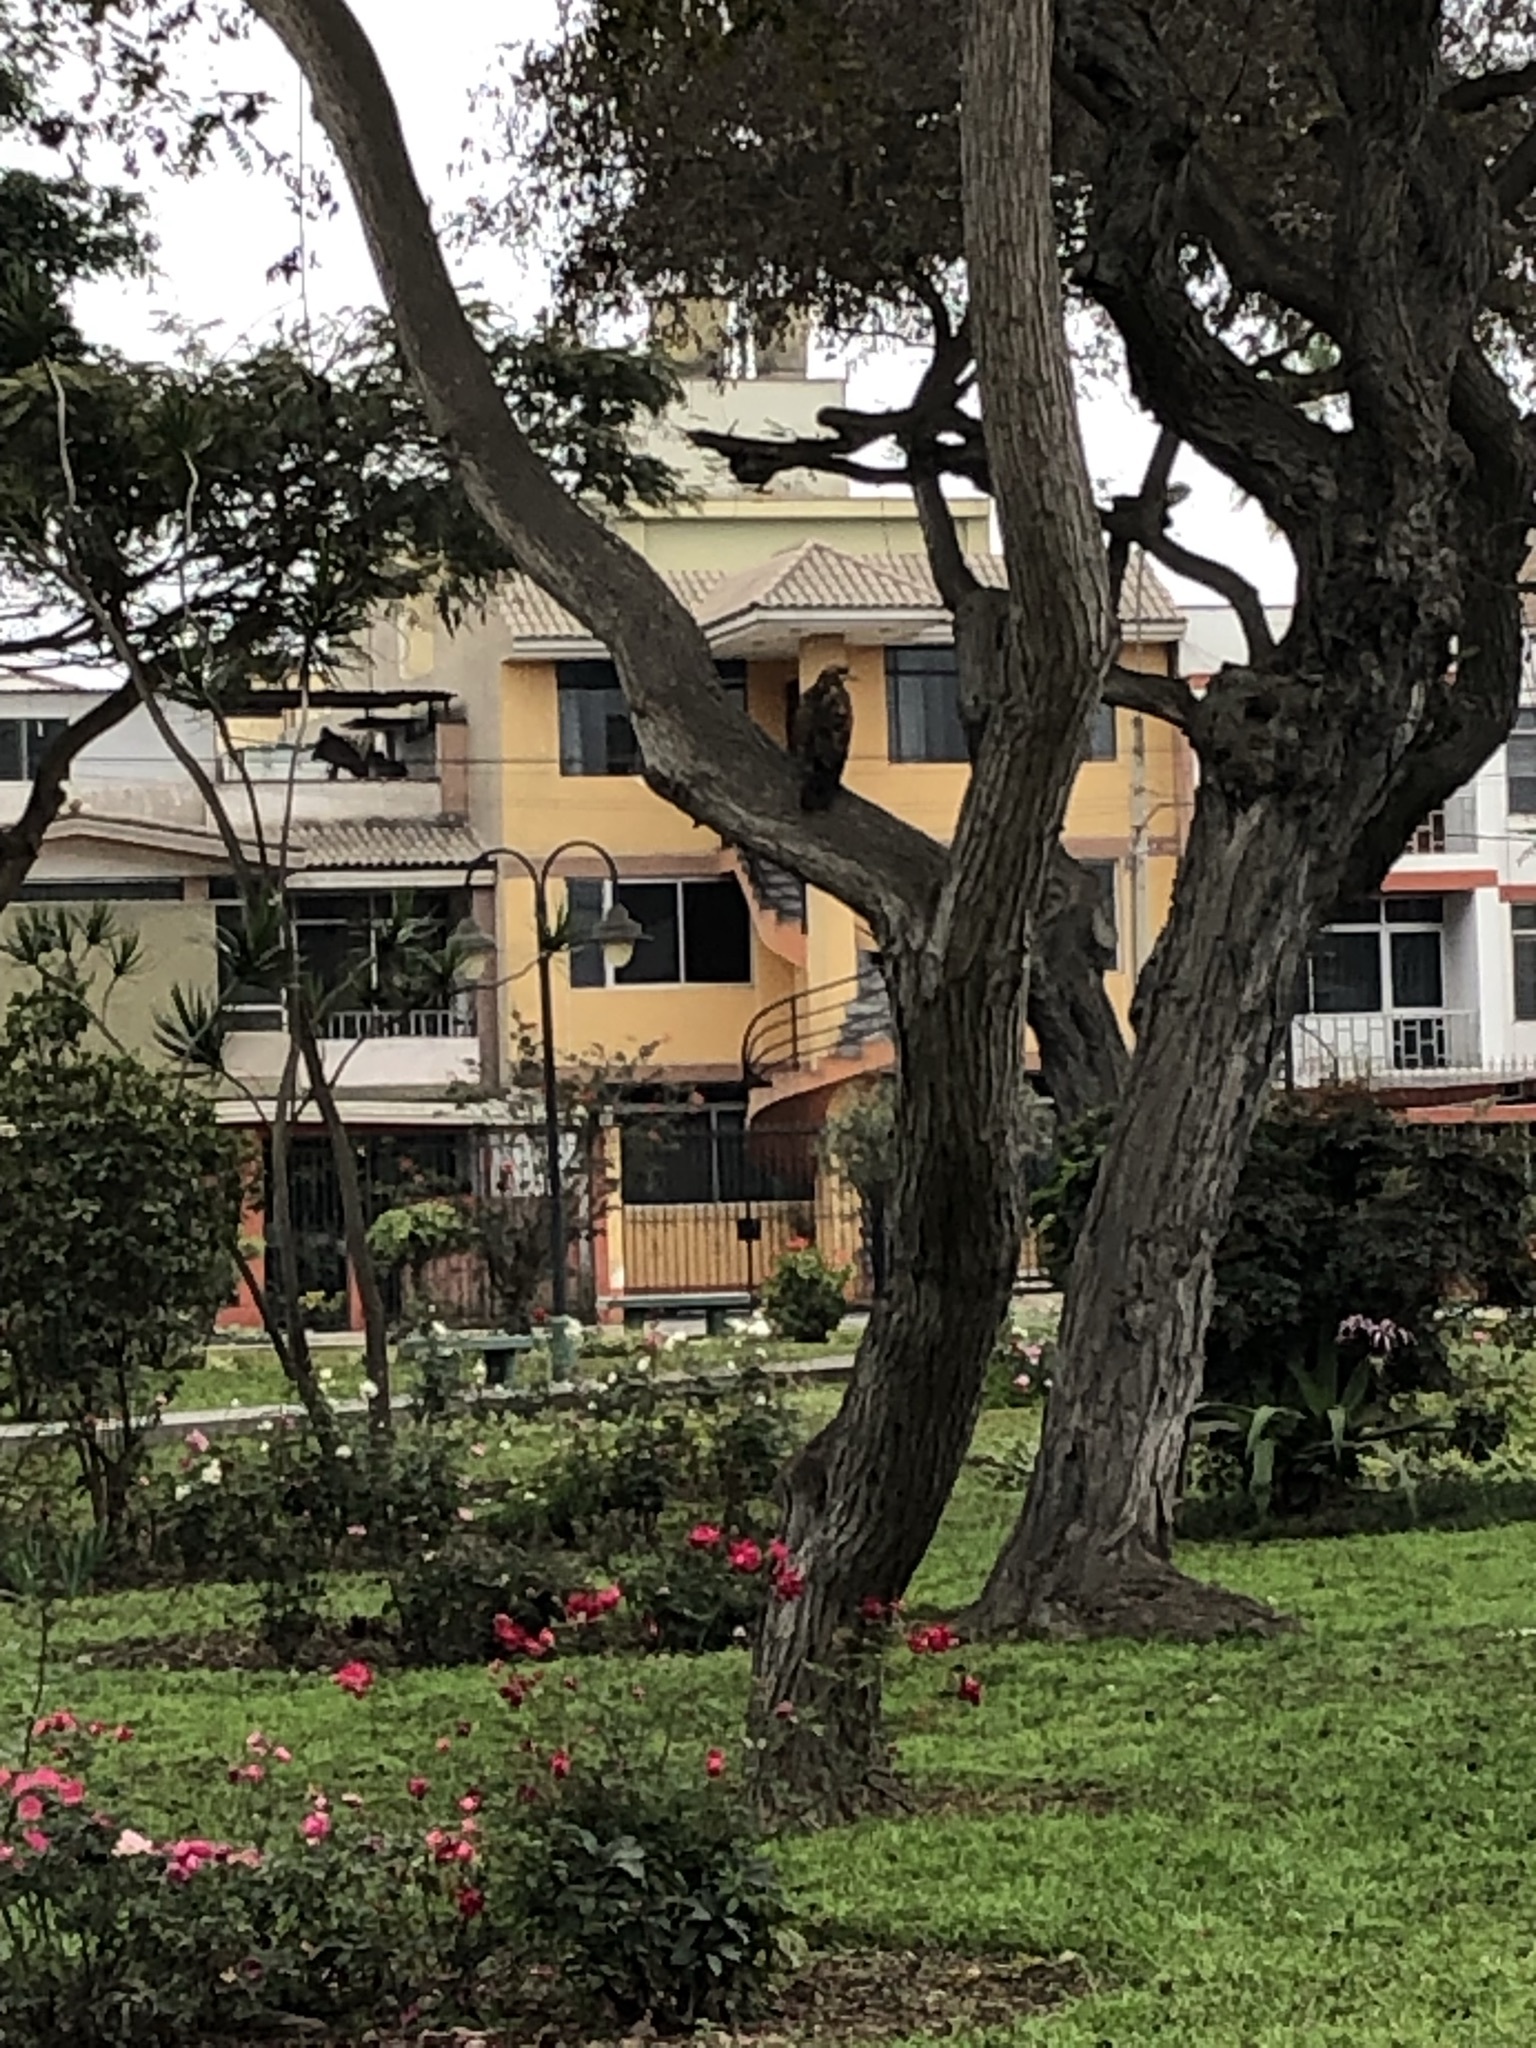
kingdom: Animalia
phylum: Chordata
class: Aves
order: Accipitriformes
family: Accipitridae
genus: Parabuteo
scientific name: Parabuteo unicinctus
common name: Harris's hawk
